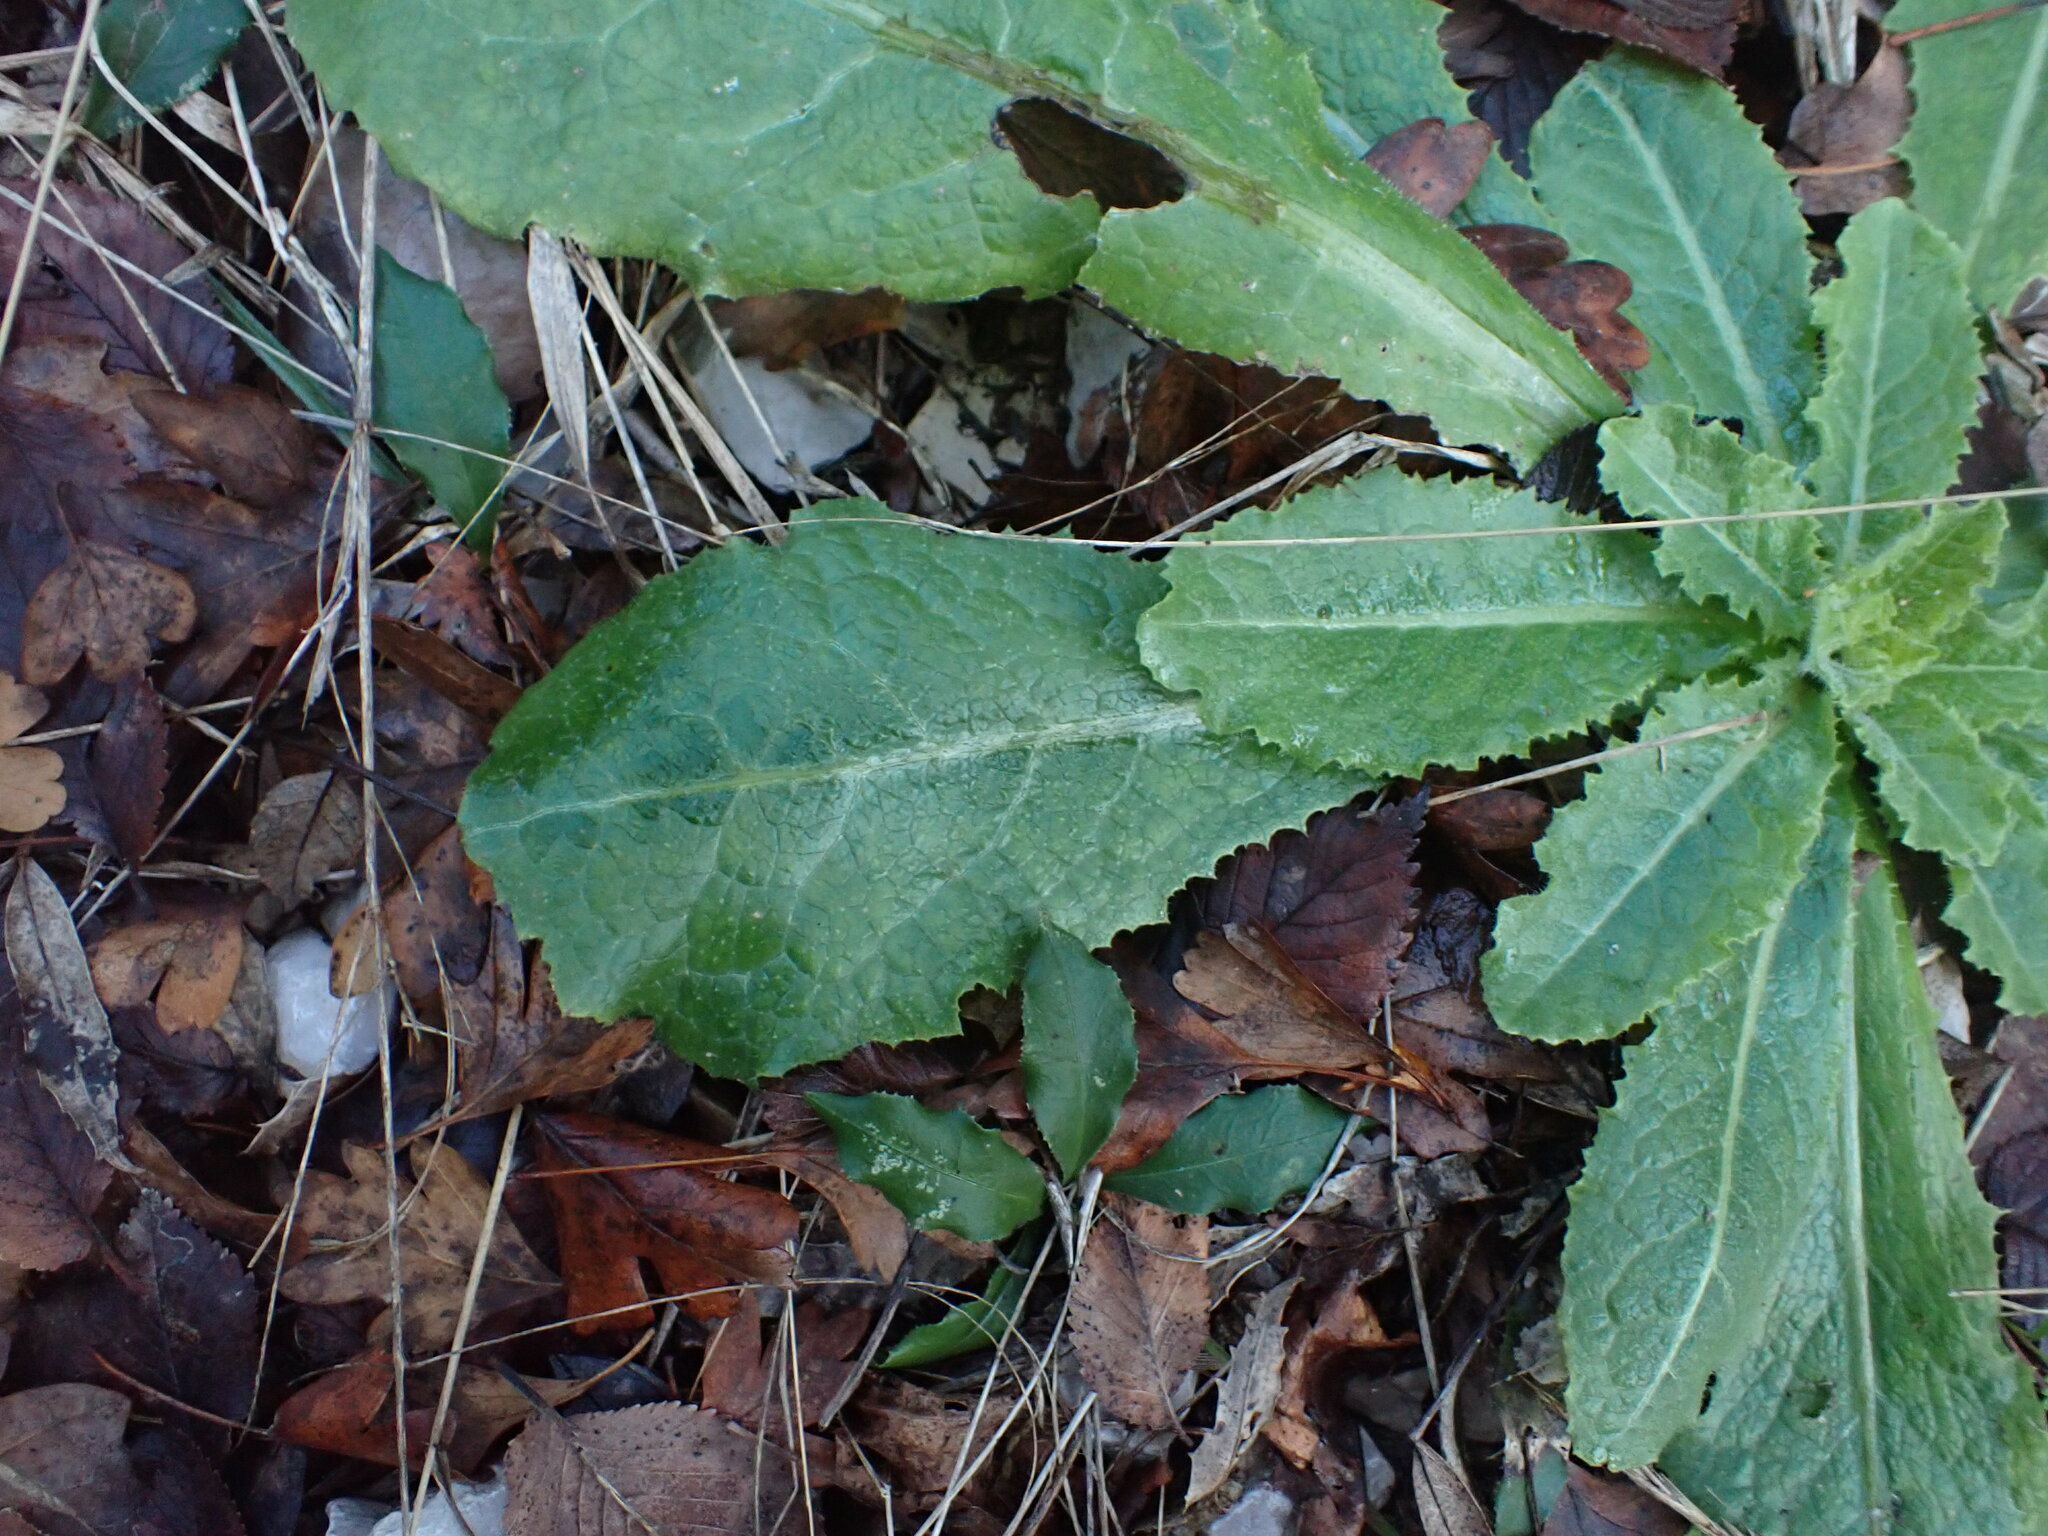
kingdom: Plantae
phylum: Tracheophyta
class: Magnoliopsida
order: Asterales
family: Asteraceae
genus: Lactuca
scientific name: Lactuca virosa
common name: Great lettuce
